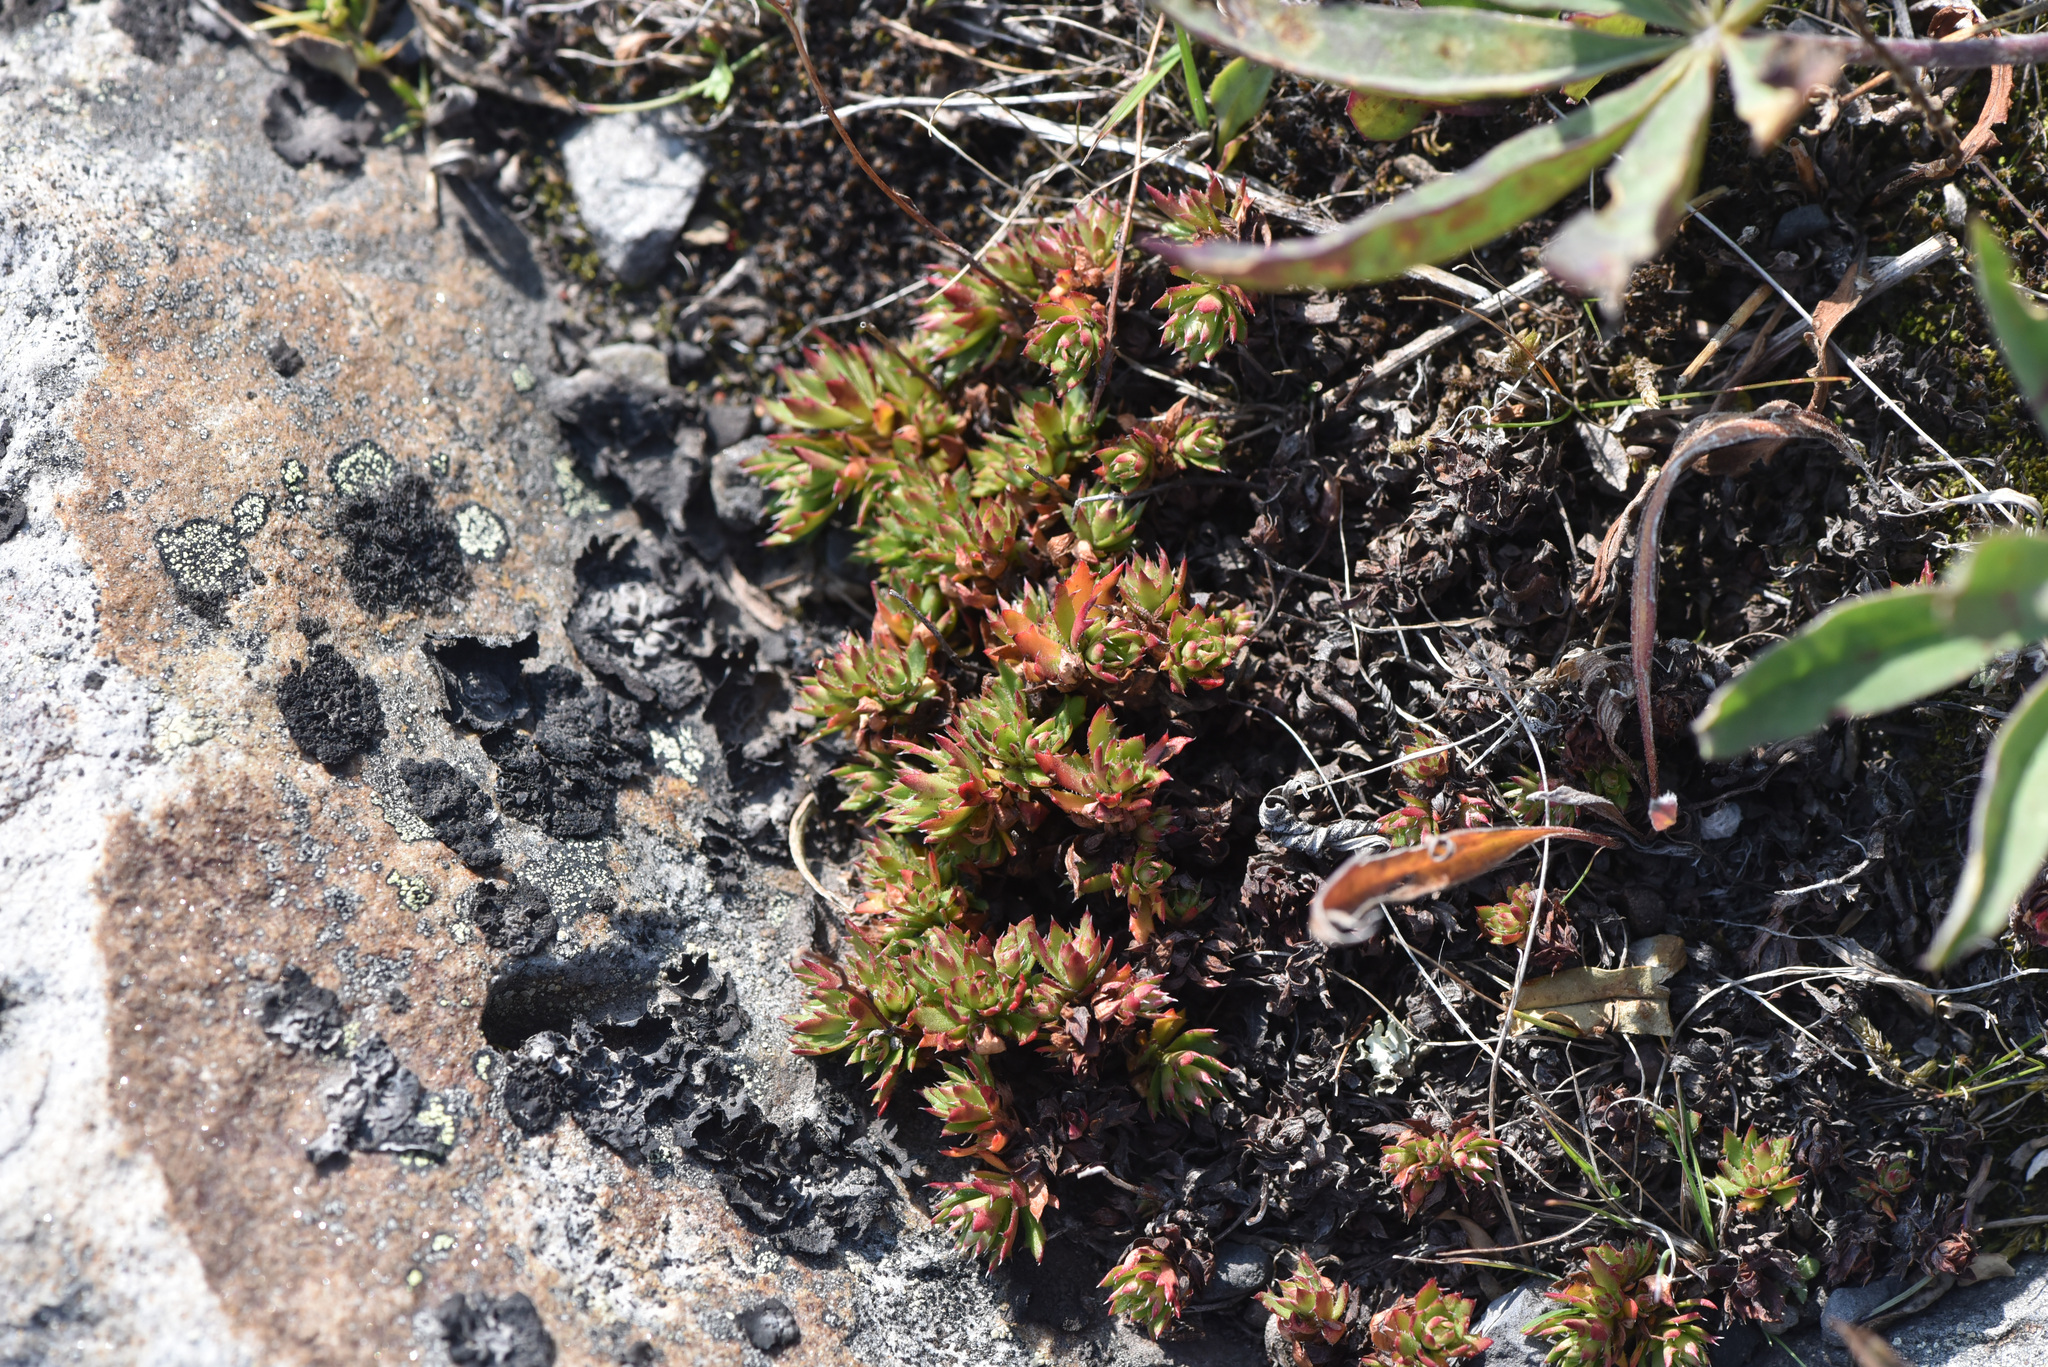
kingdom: Plantae
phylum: Tracheophyta
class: Magnoliopsida
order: Saxifragales
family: Saxifragaceae
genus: Saxifraga
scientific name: Saxifraga tricuspidata
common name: Prickly saxifrage
